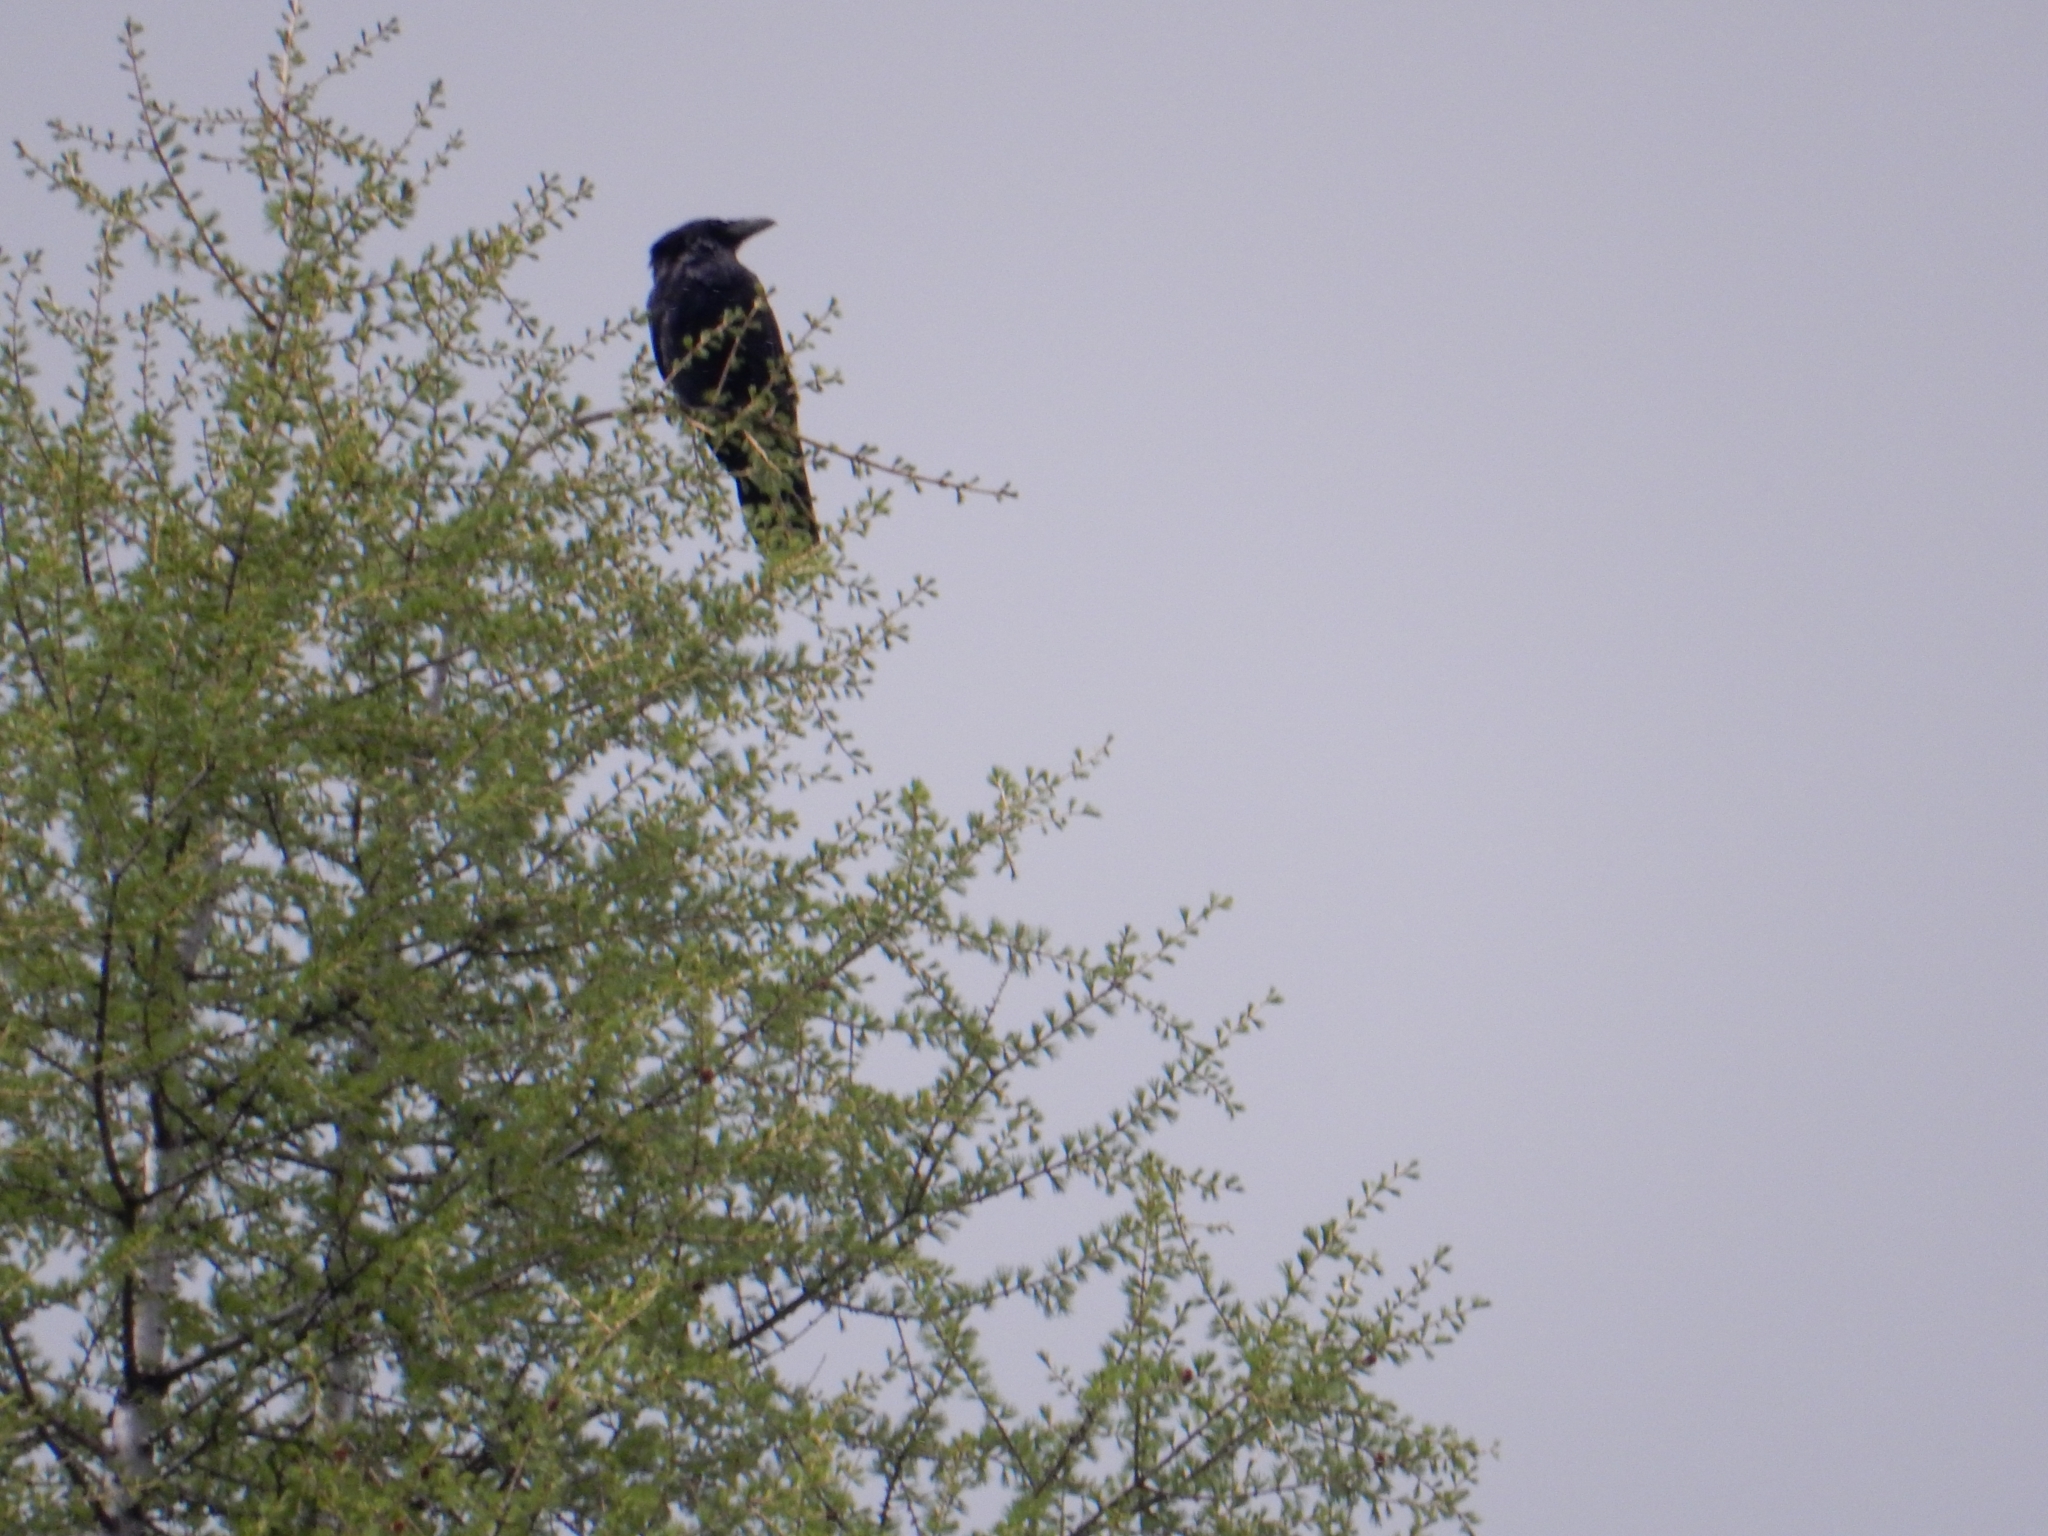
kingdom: Animalia
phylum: Chordata
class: Aves
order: Passeriformes
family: Corvidae
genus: Corvus
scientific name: Corvus corone
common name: Carrion crow
